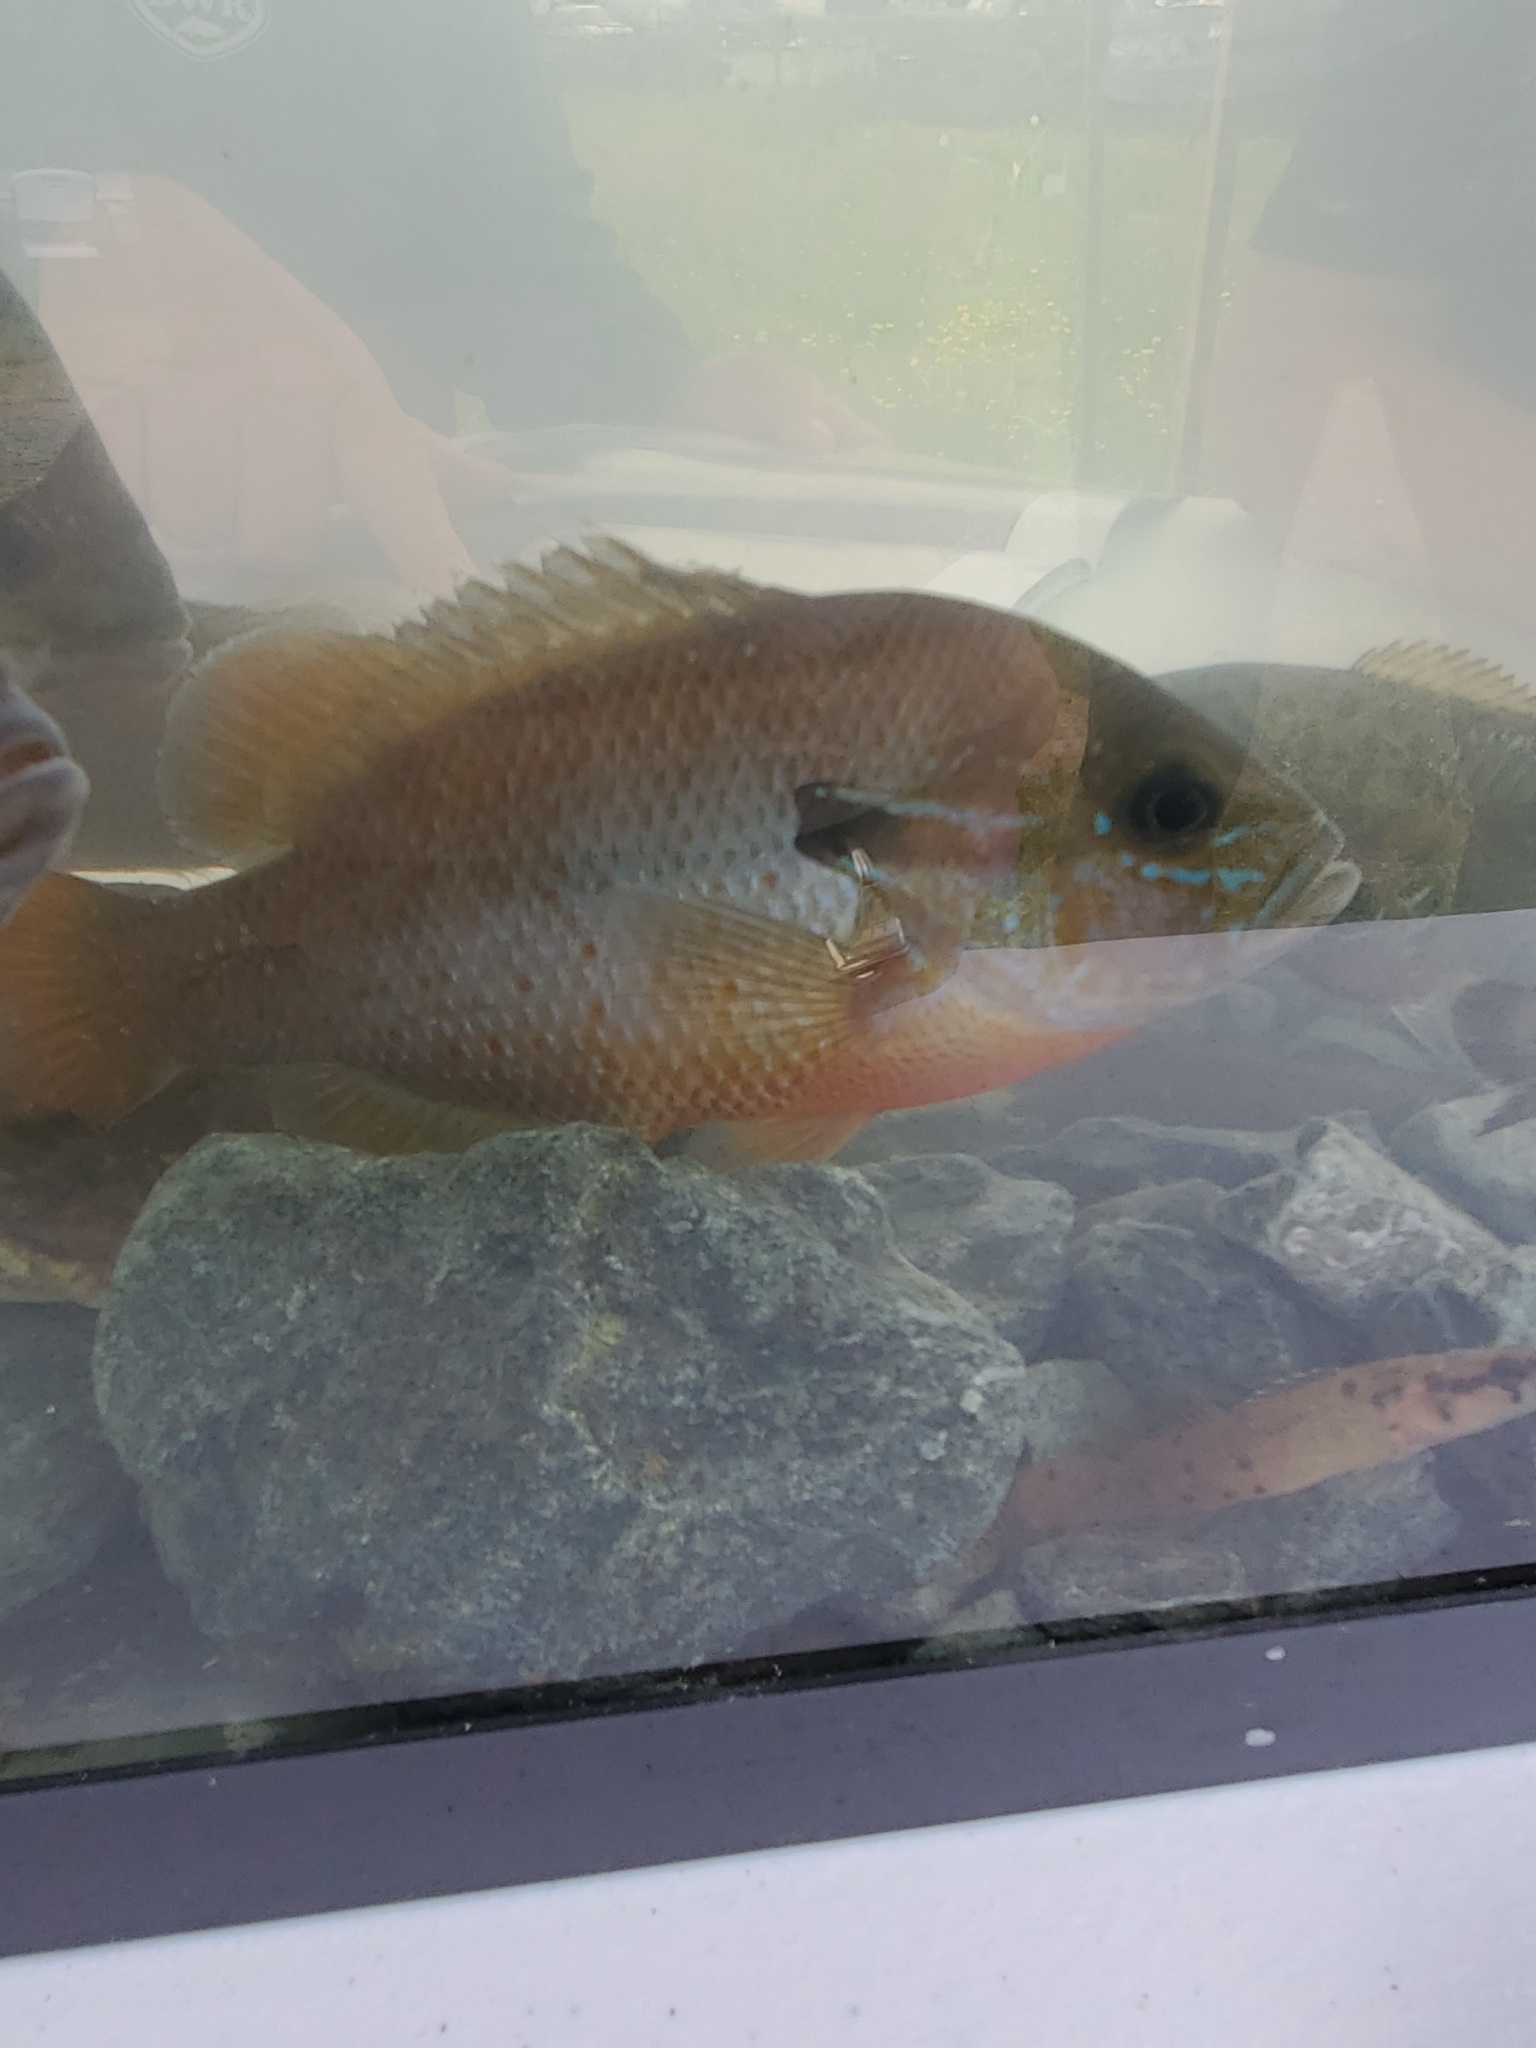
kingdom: Animalia
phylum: Chordata
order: Perciformes
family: Centrarchidae
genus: Lepomis
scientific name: Lepomis auritus
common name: Redbreast sunfish
